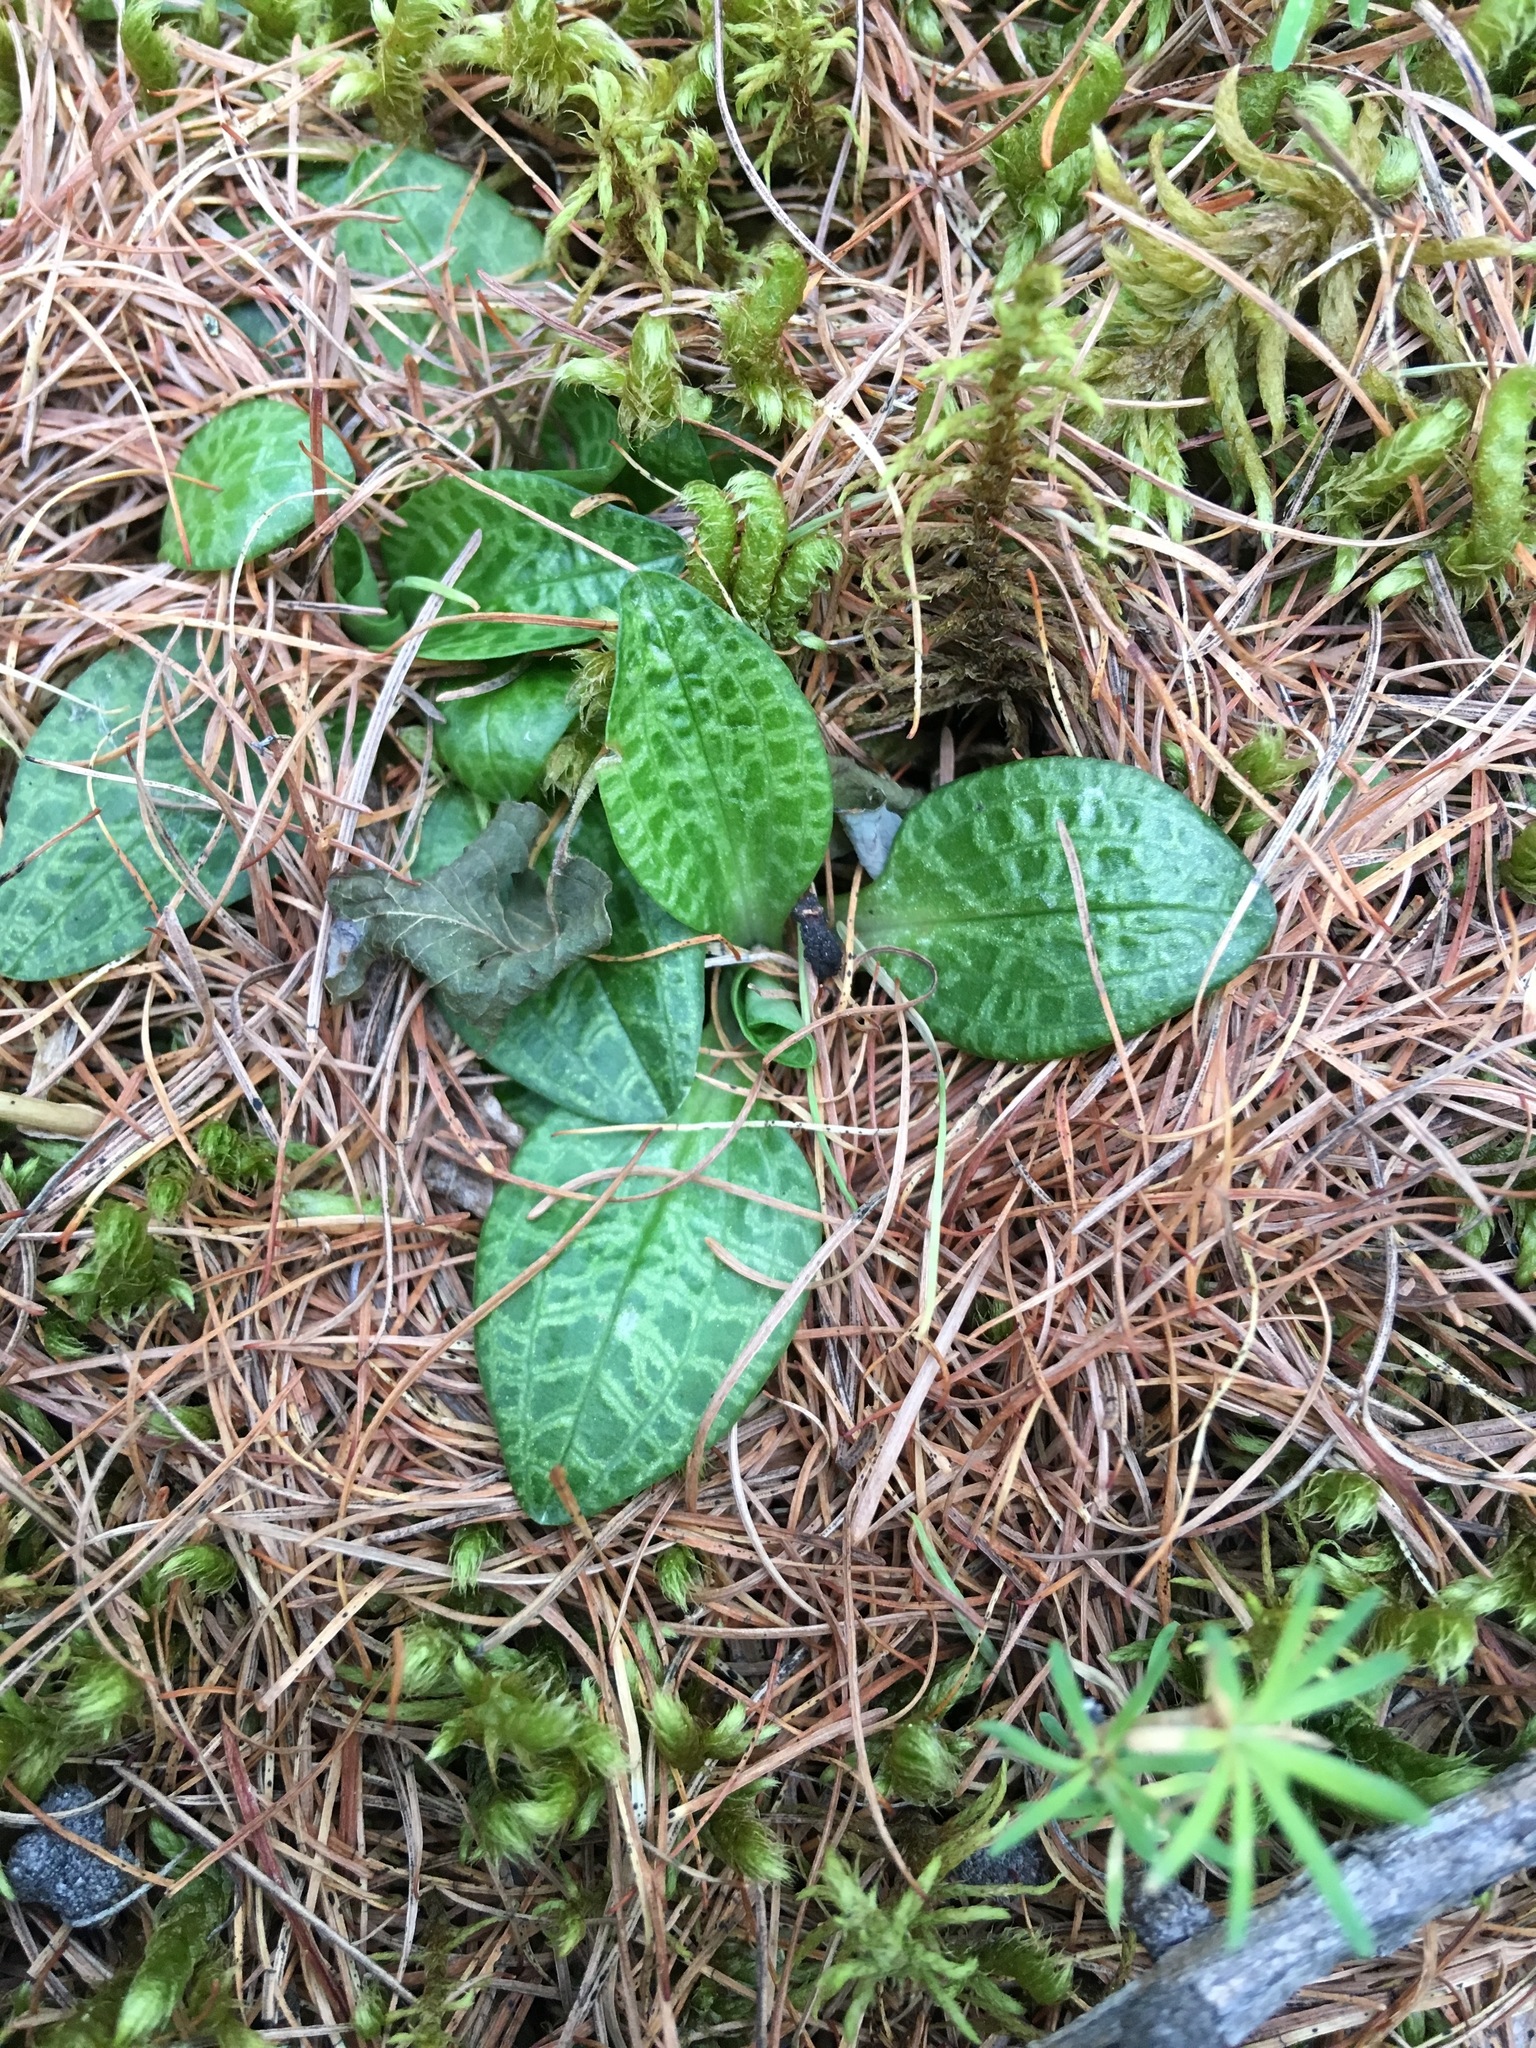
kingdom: Plantae
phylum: Tracheophyta
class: Liliopsida
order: Asparagales
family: Orchidaceae
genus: Goodyera
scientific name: Goodyera repens
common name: Creeping lady's-tresses
